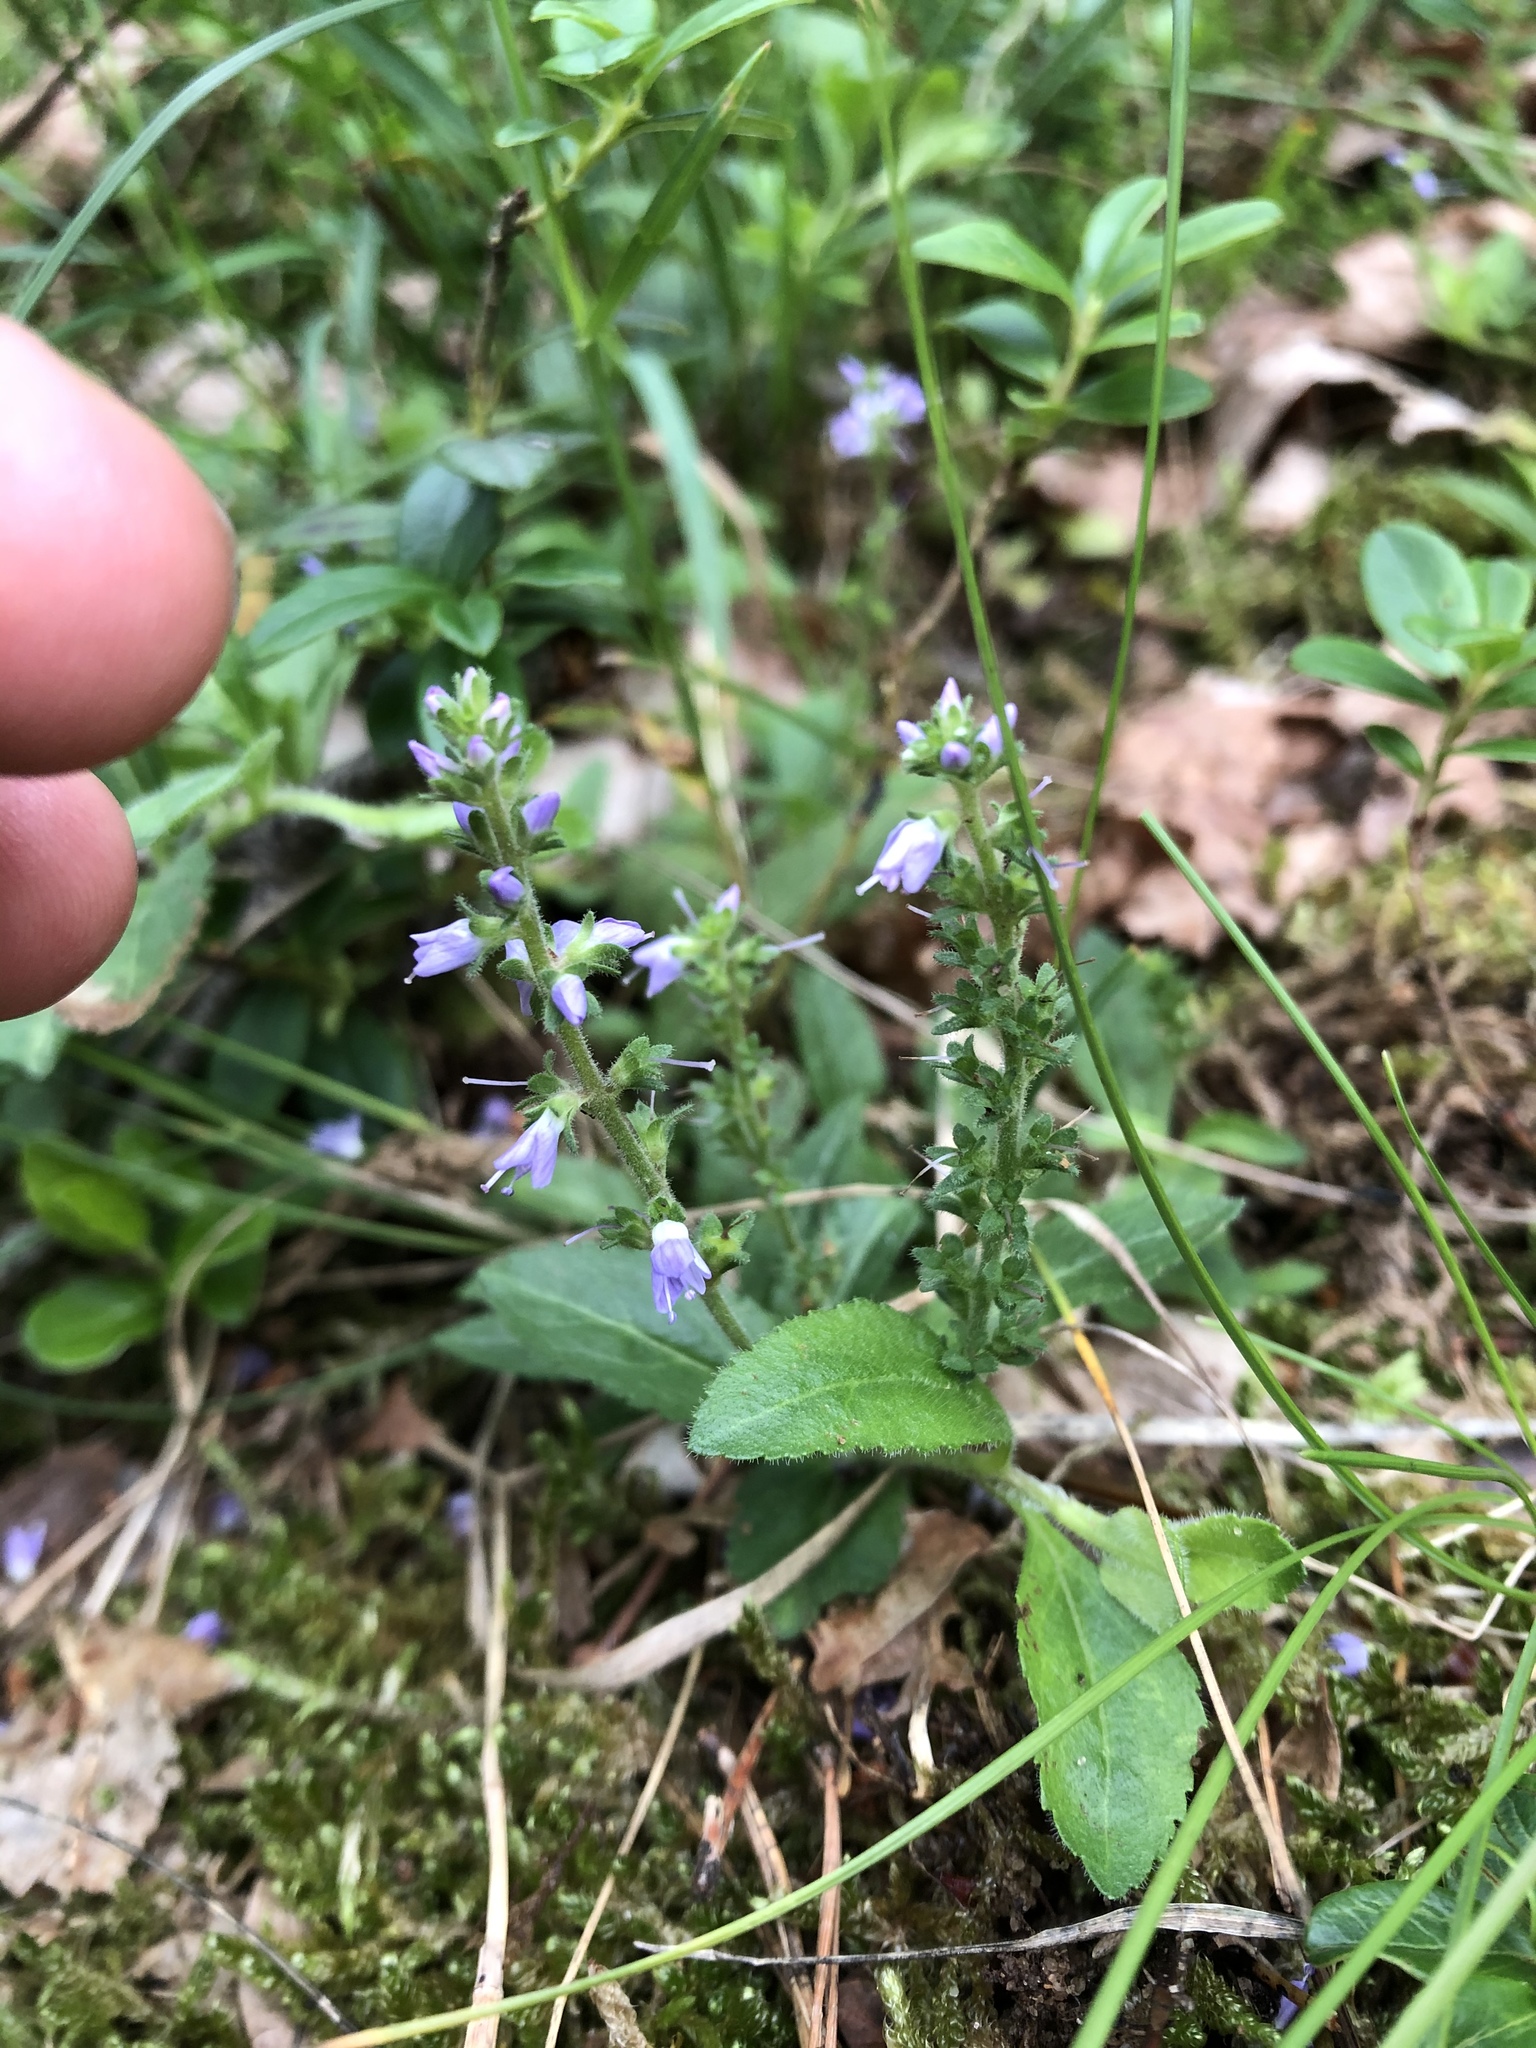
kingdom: Plantae
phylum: Tracheophyta
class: Magnoliopsida
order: Lamiales
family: Plantaginaceae
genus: Veronica
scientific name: Veronica officinalis
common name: Common speedwell
